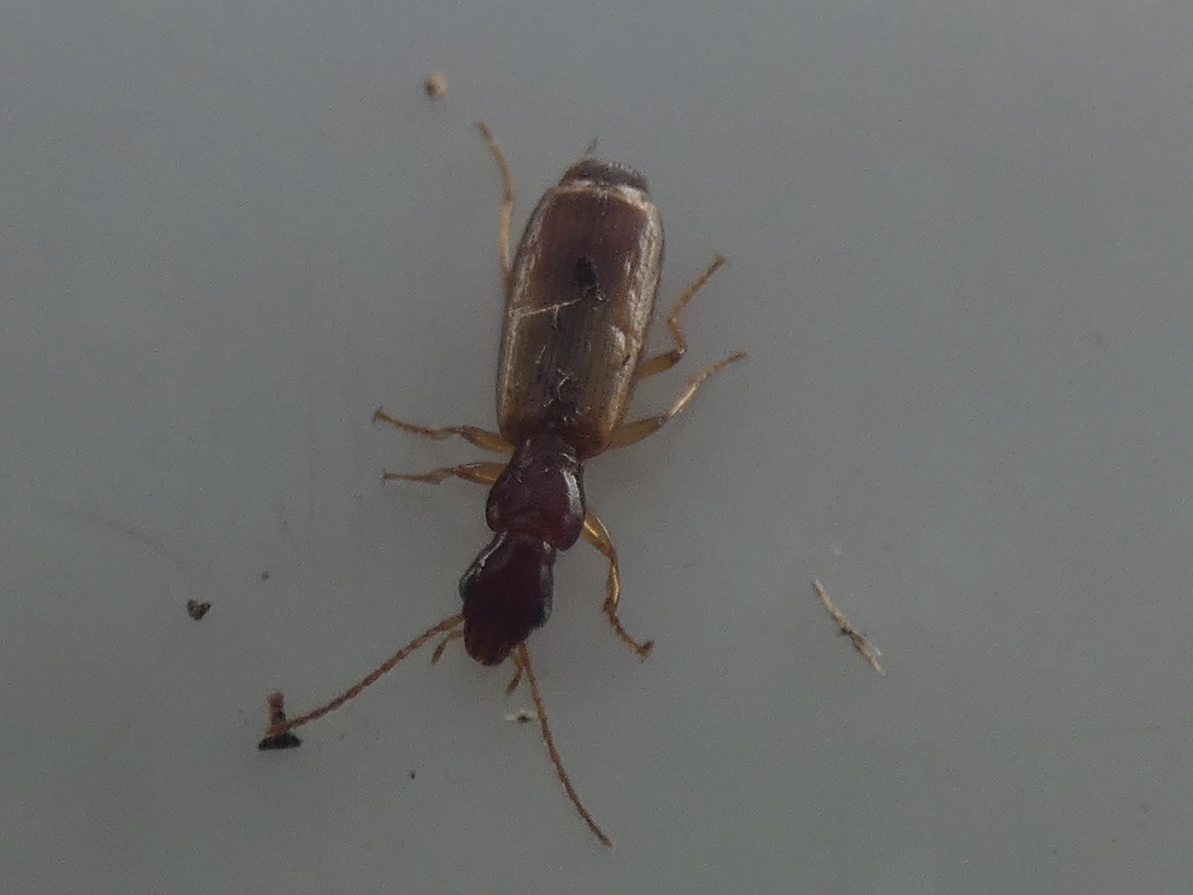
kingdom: Animalia
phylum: Arthropoda
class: Insecta
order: Coleoptera
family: Carabidae
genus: Paradromius
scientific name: Paradromius linearis
